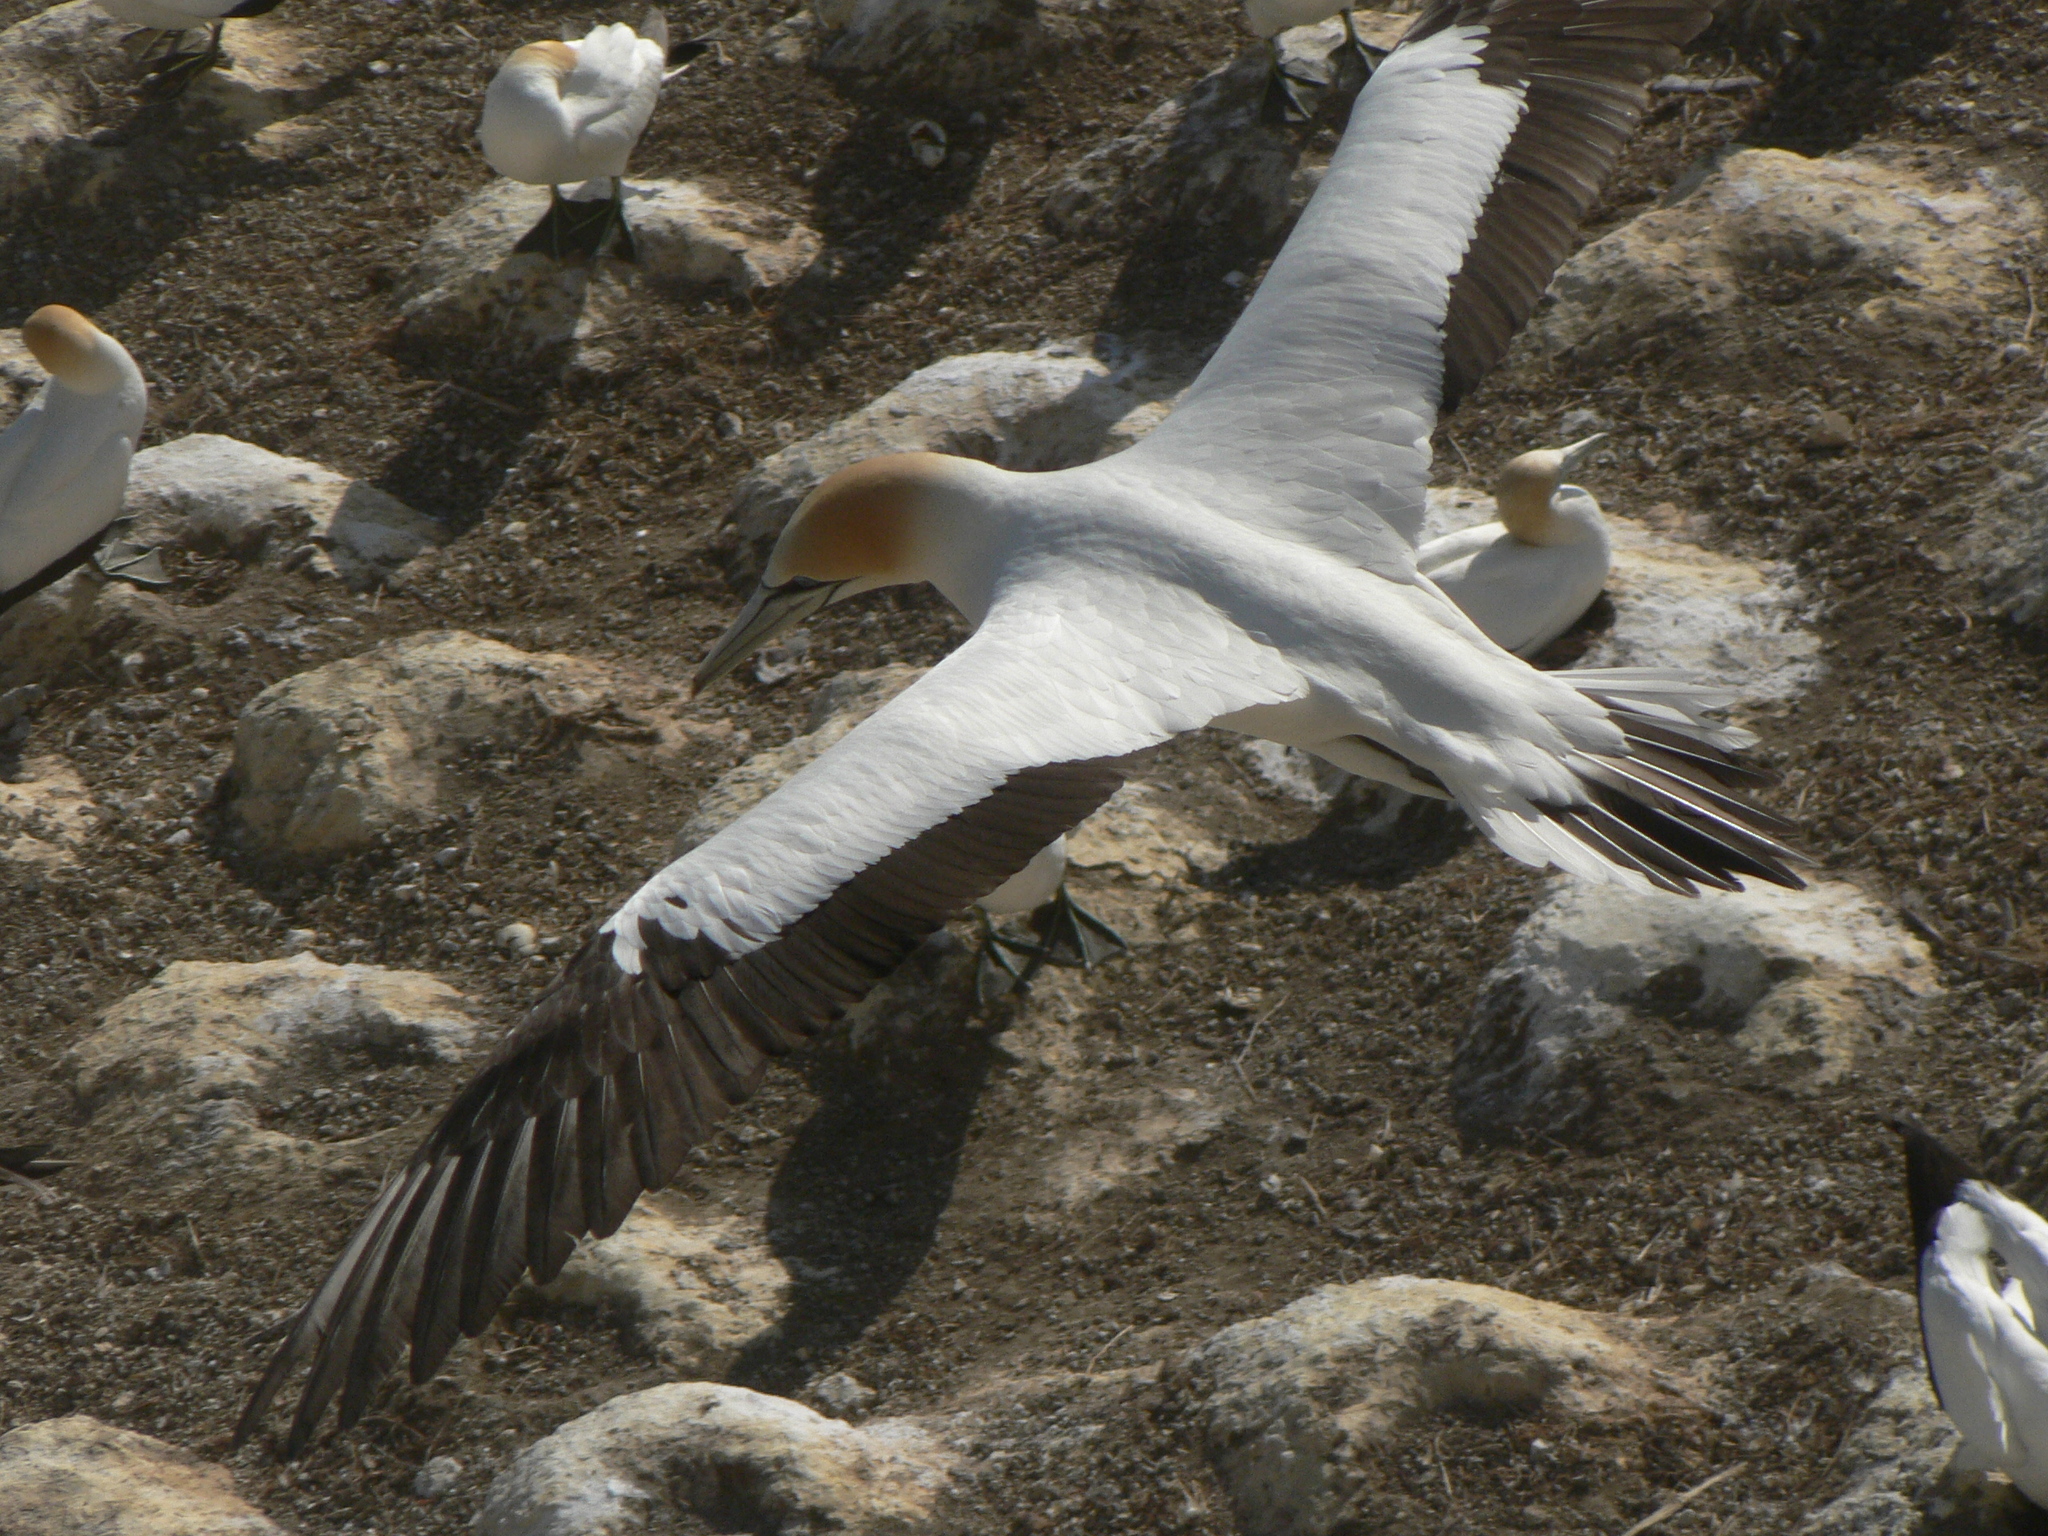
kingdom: Animalia
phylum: Chordata
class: Aves
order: Suliformes
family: Sulidae
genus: Morus
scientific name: Morus serrator
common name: Australasian gannet
